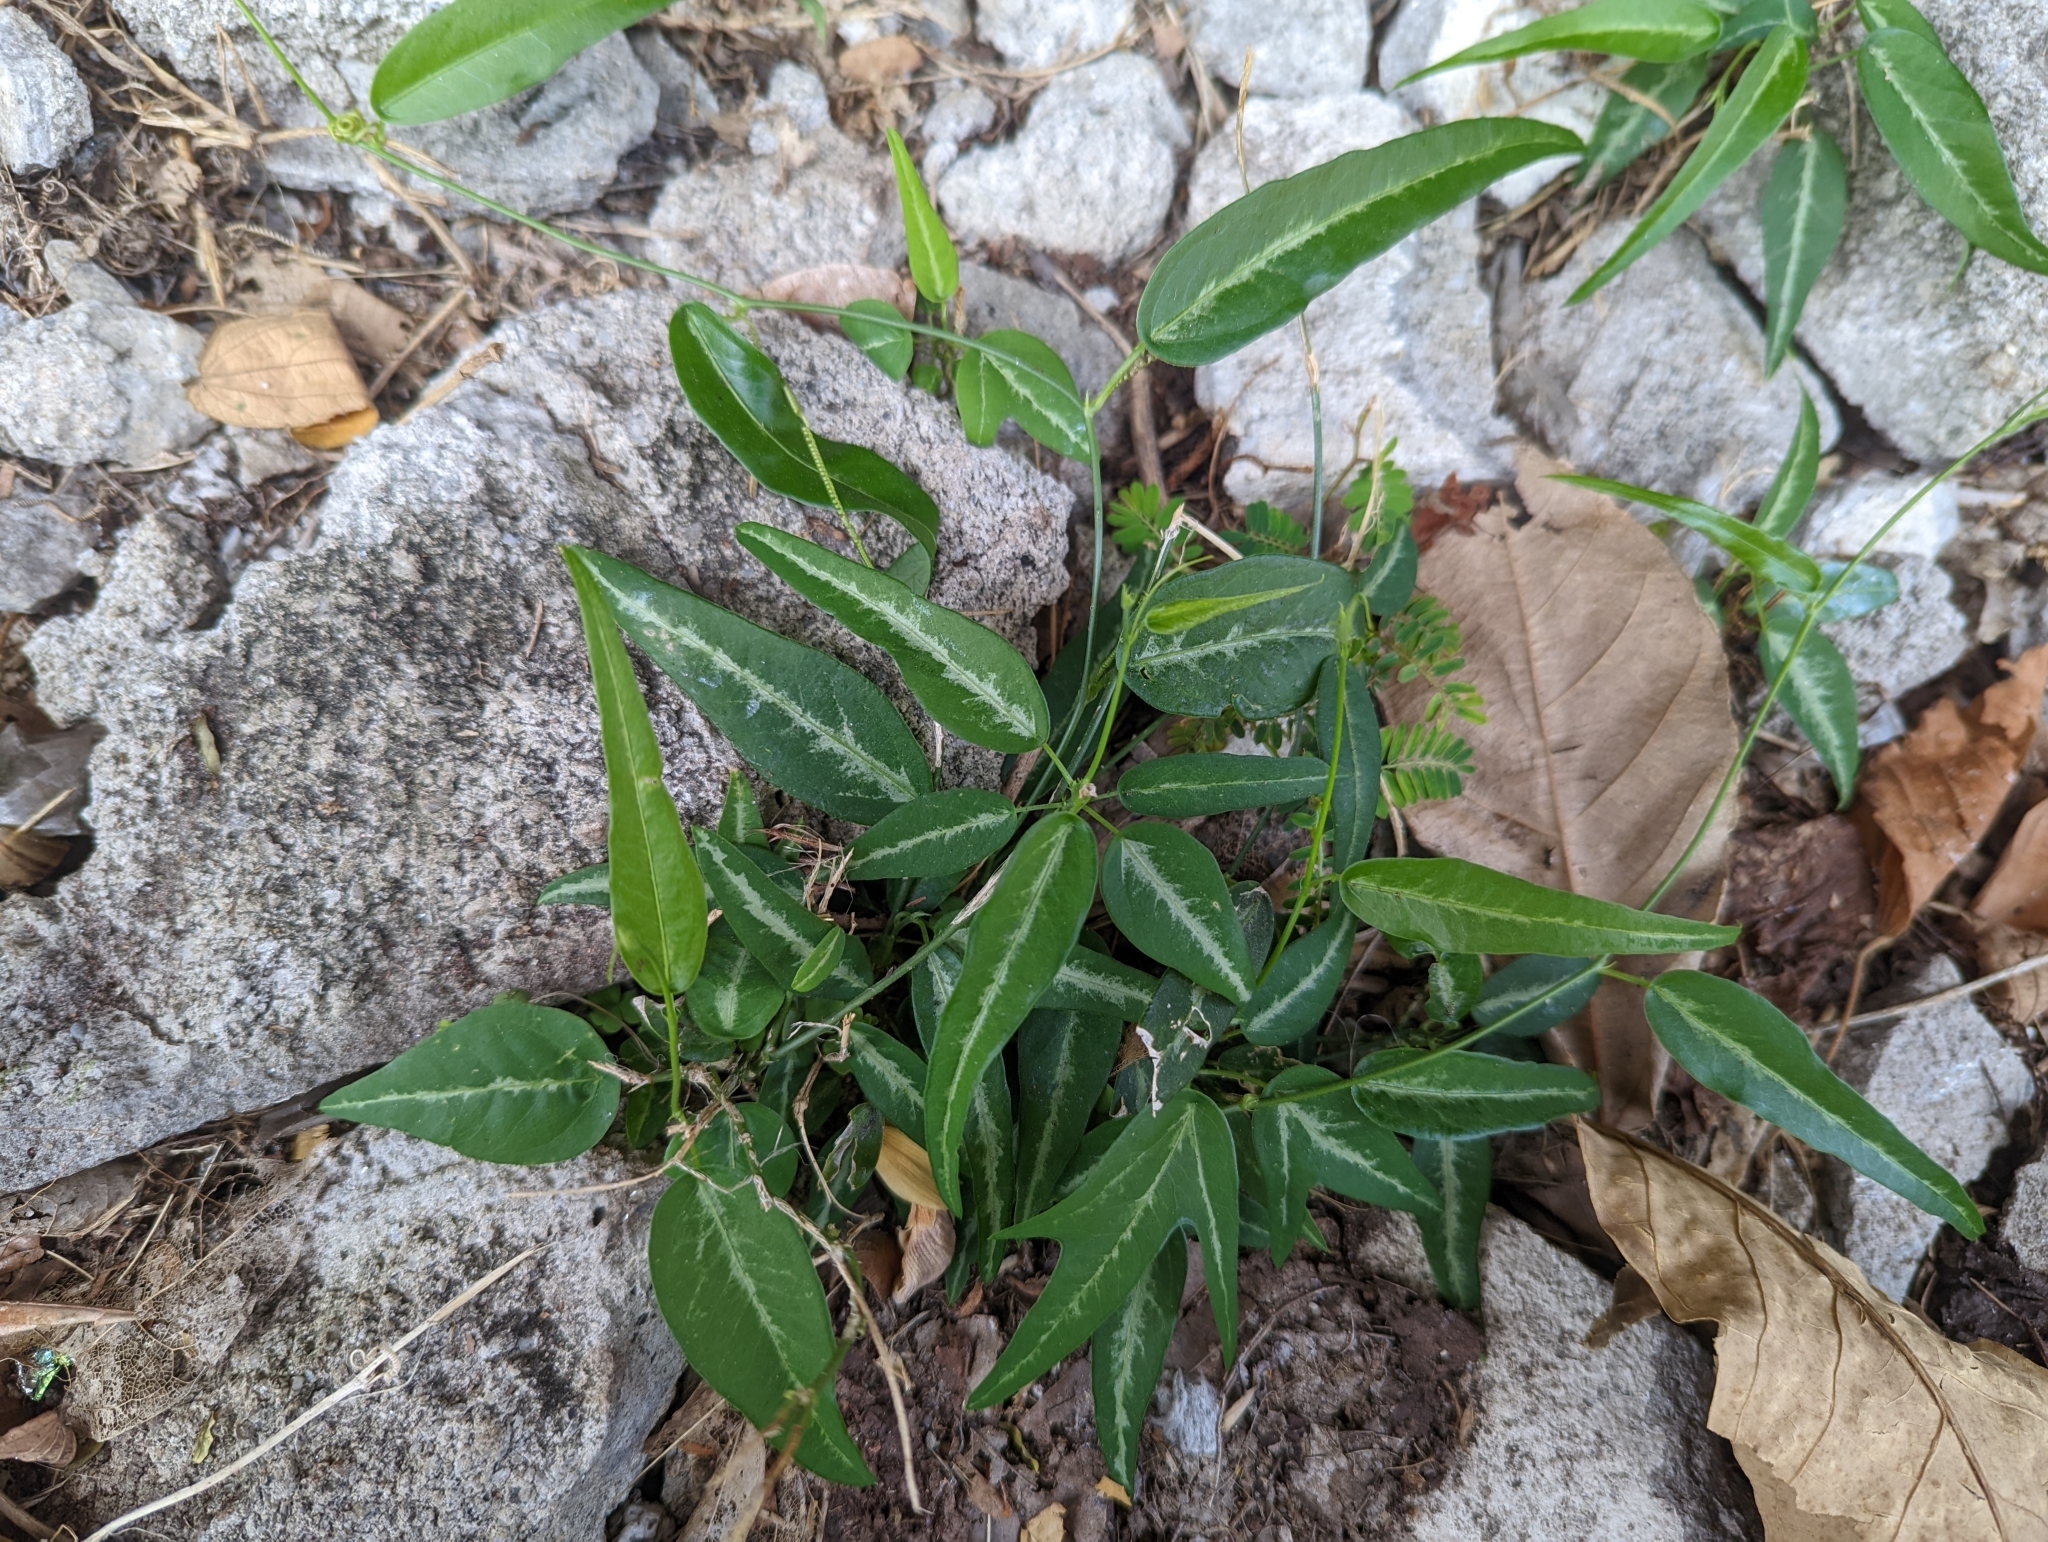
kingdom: Plantae
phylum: Tracheophyta
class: Magnoliopsida
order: Malpighiales
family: Passifloraceae
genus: Passiflora
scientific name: Passiflora pallida
